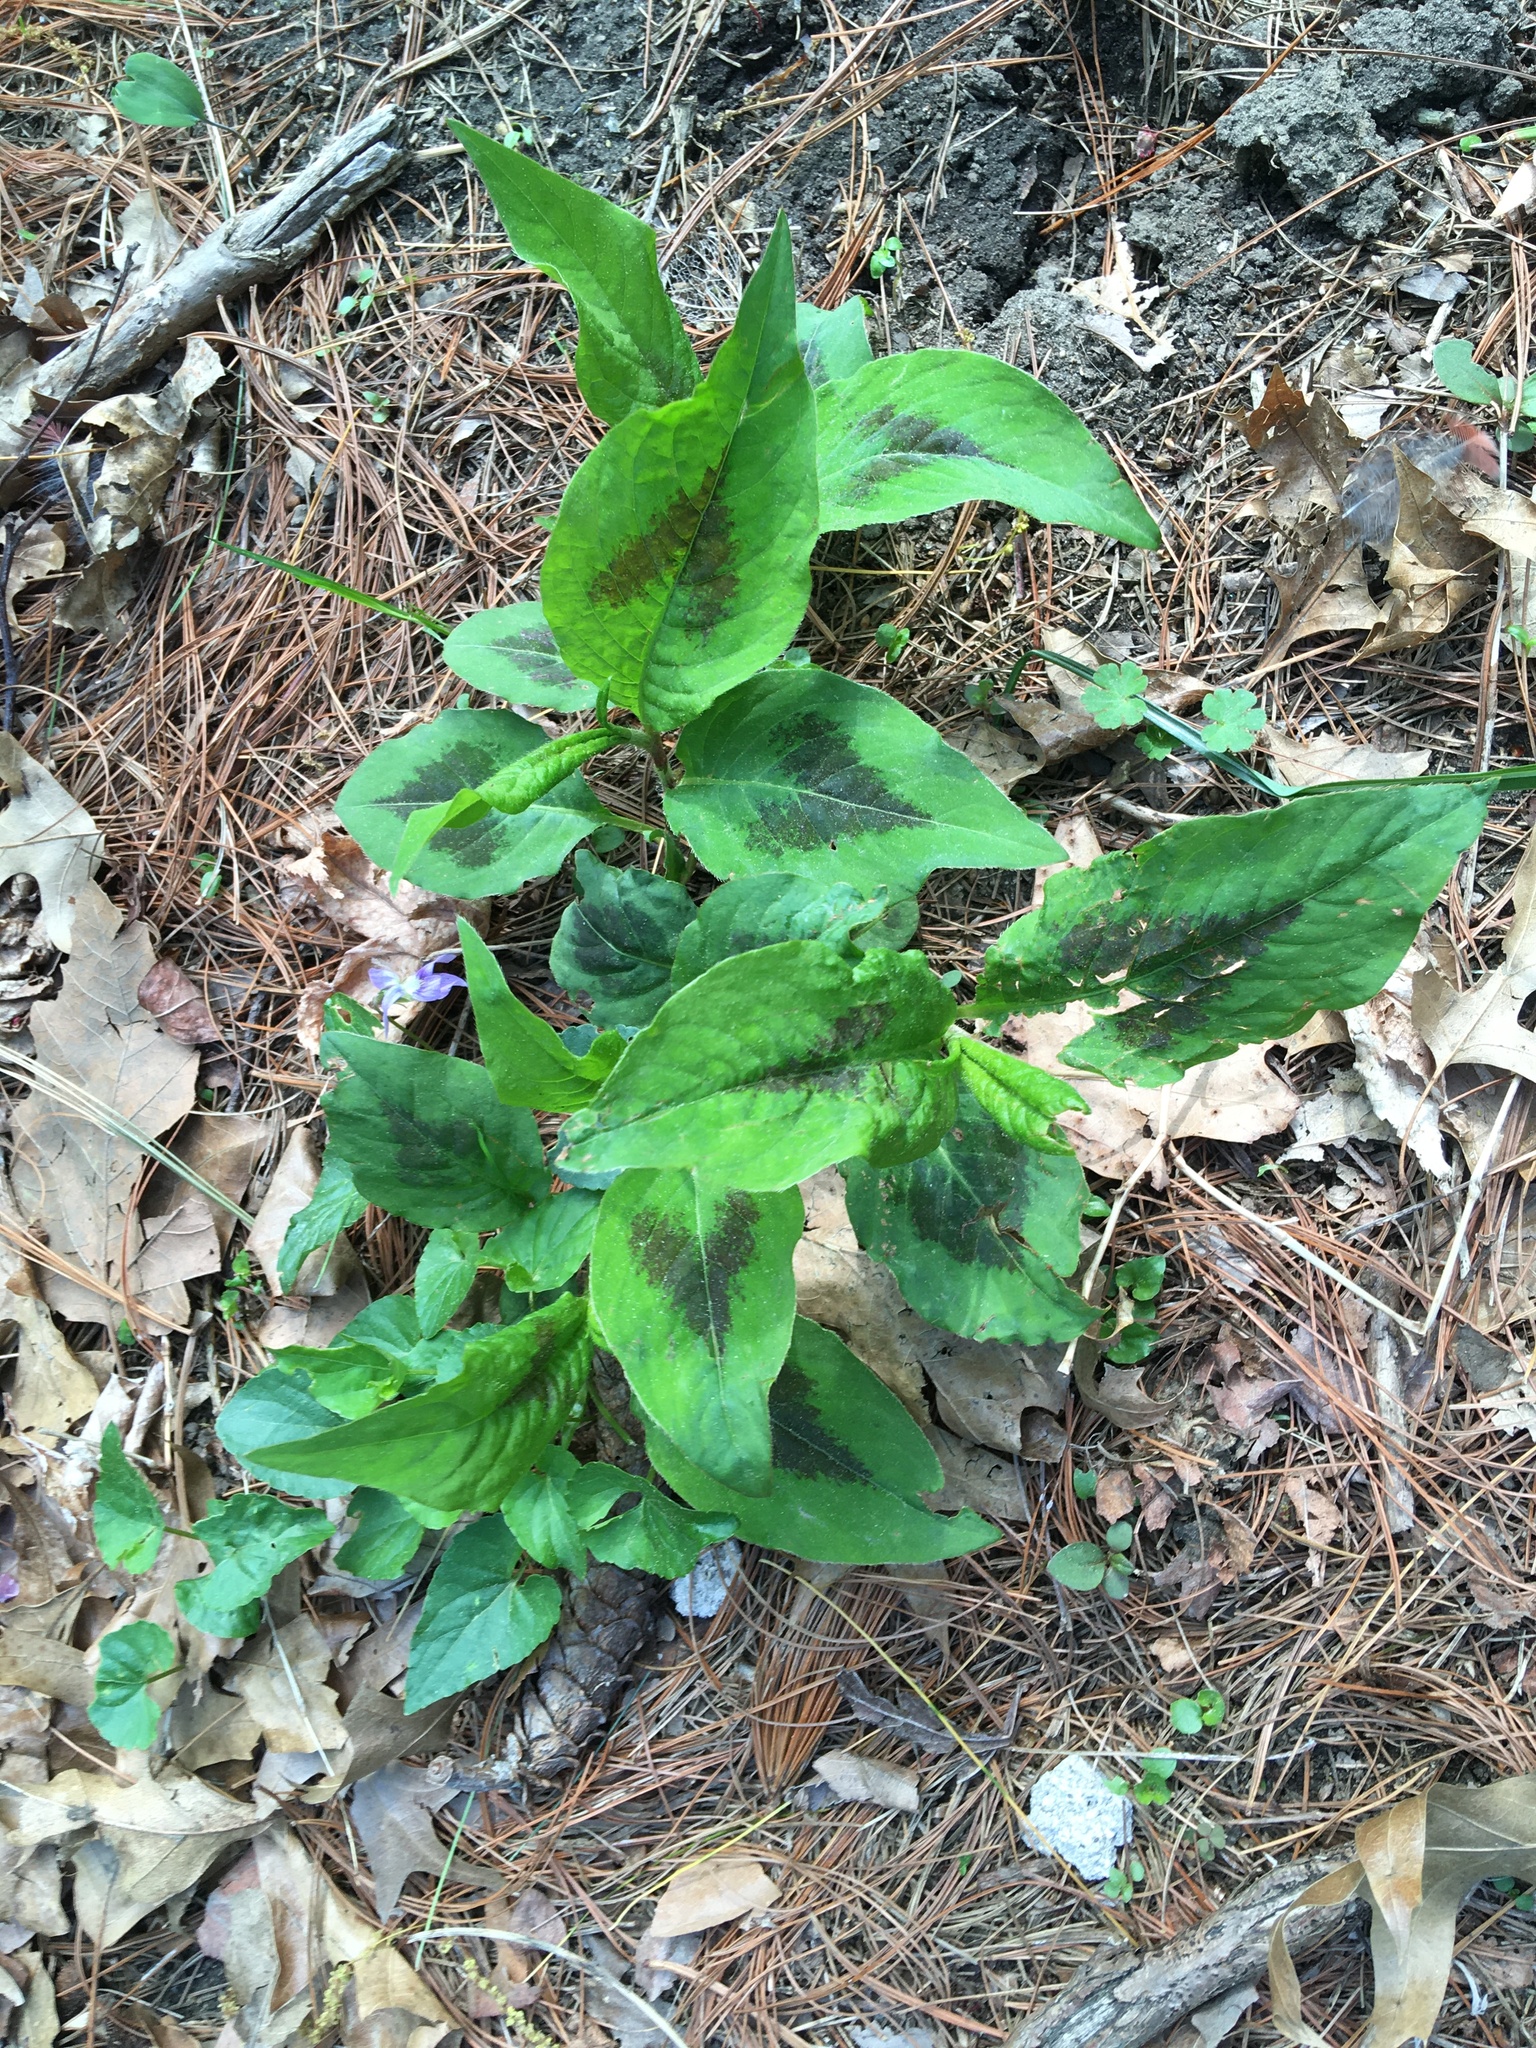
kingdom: Plantae
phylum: Tracheophyta
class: Magnoliopsida
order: Caryophyllales
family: Polygonaceae
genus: Persicaria
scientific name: Persicaria virginiana
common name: Jumpseed
